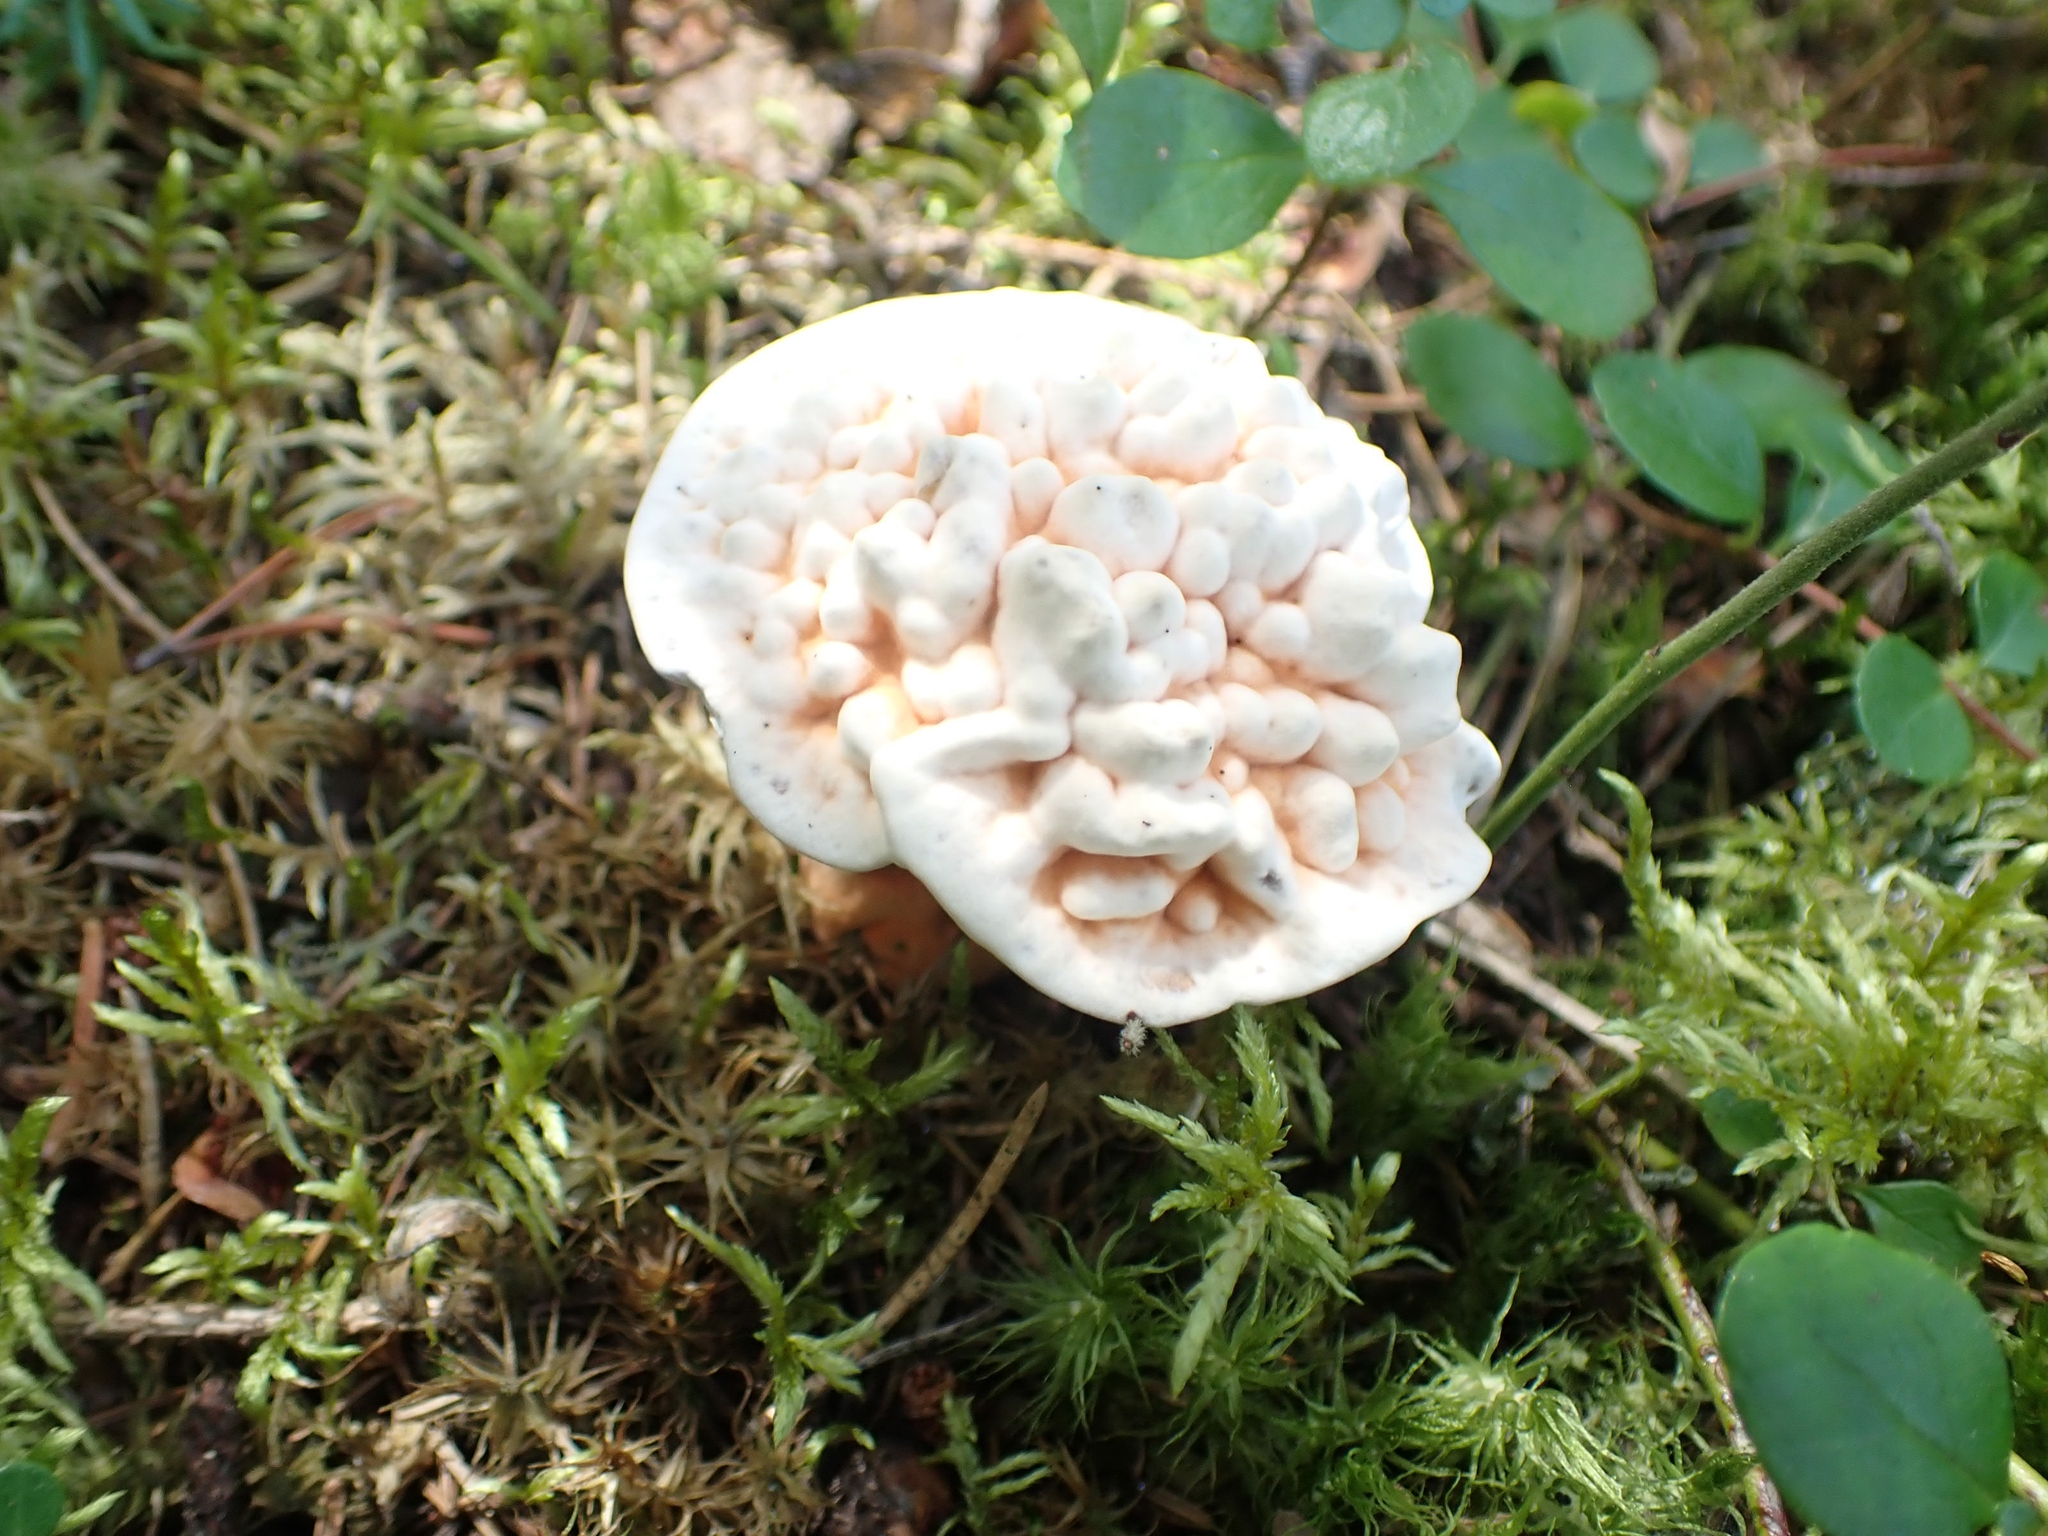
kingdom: Fungi
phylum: Basidiomycota
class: Agaricomycetes
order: Thelephorales
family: Bankeraceae
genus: Hydnellum
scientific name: Hydnellum aurantiacum
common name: Orange tooth
